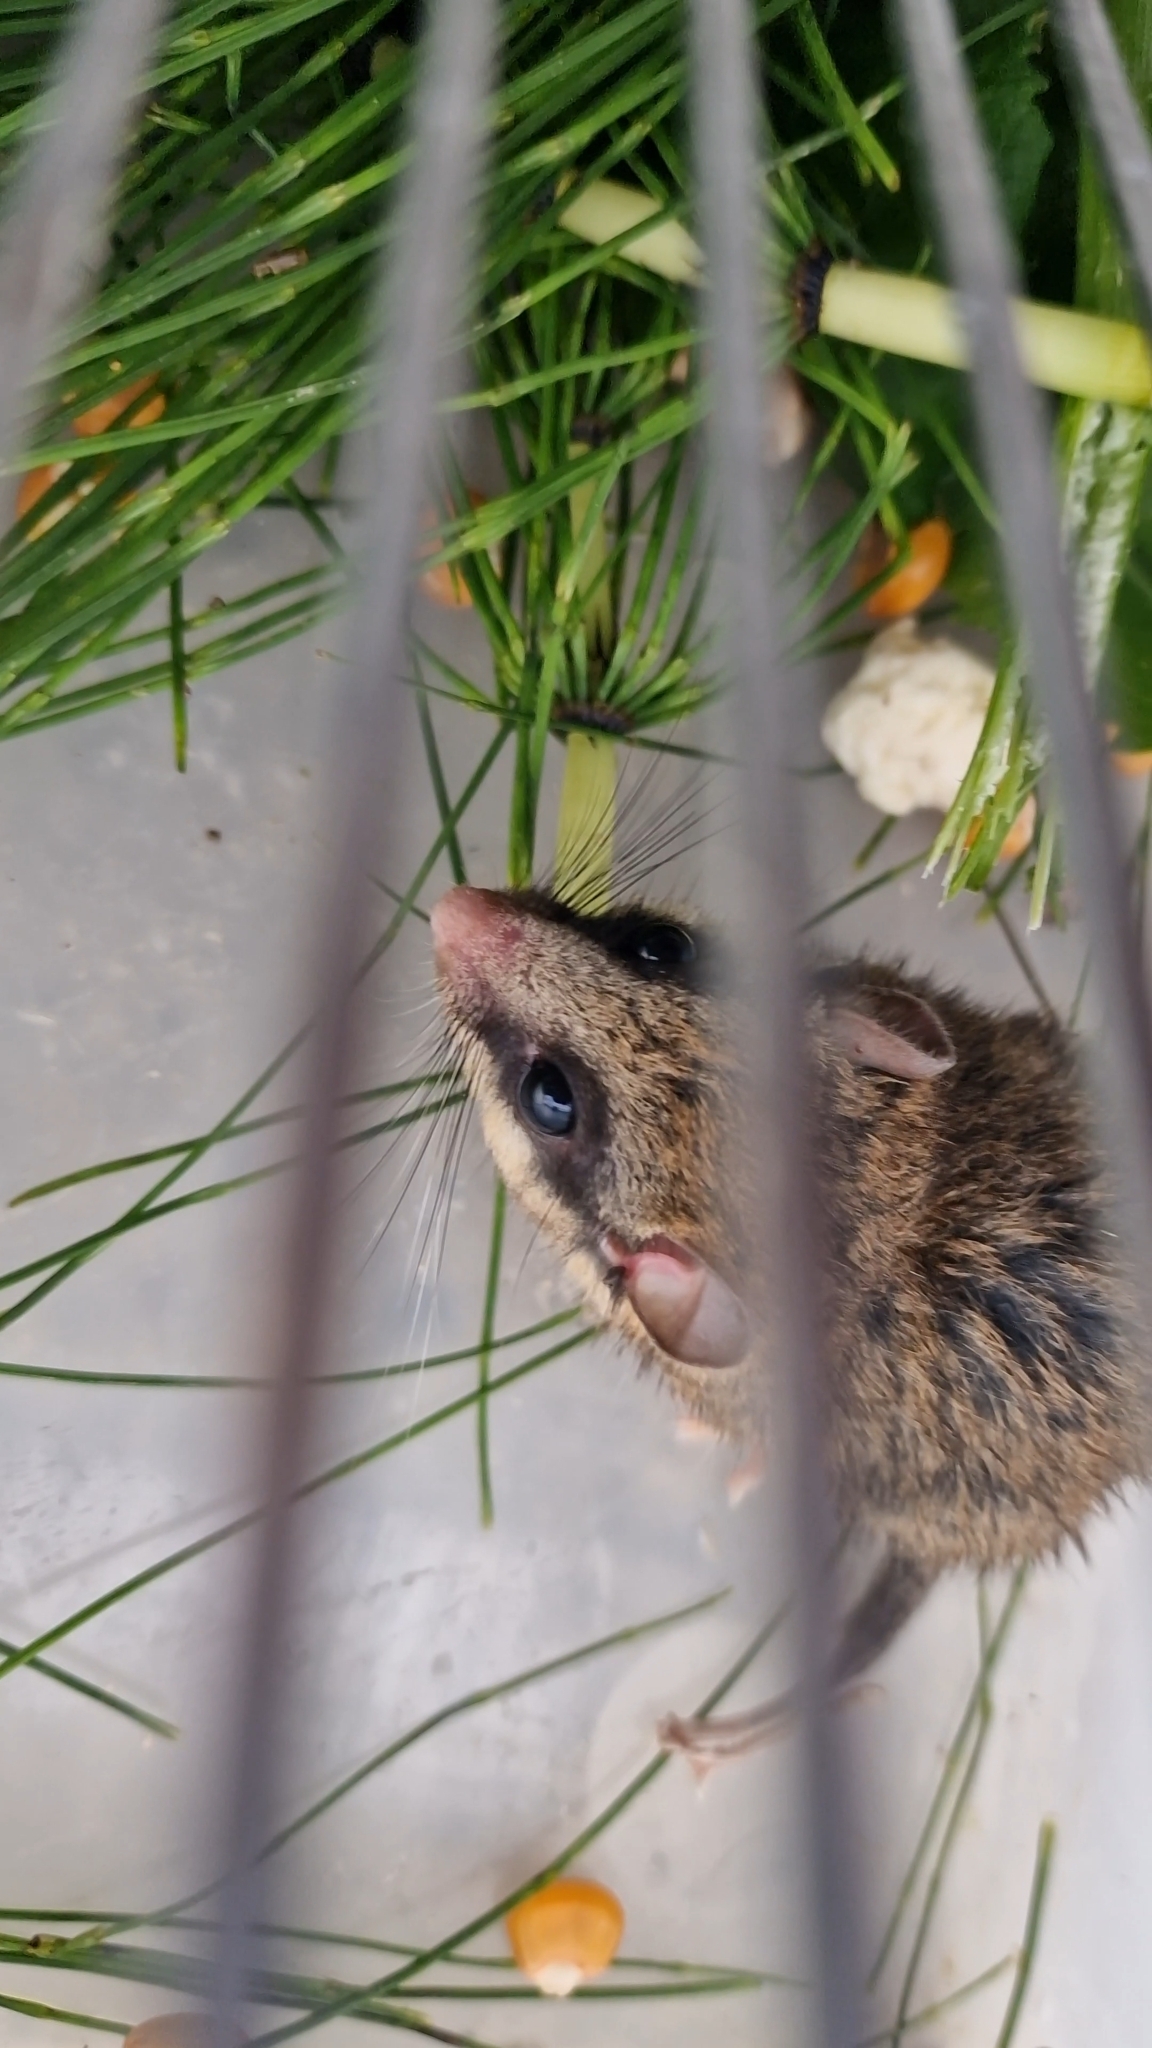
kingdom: Animalia
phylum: Chordata
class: Mammalia
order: Rodentia
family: Gliridae
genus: Dryomys
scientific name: Dryomys nitedula
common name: Forest dormouse
